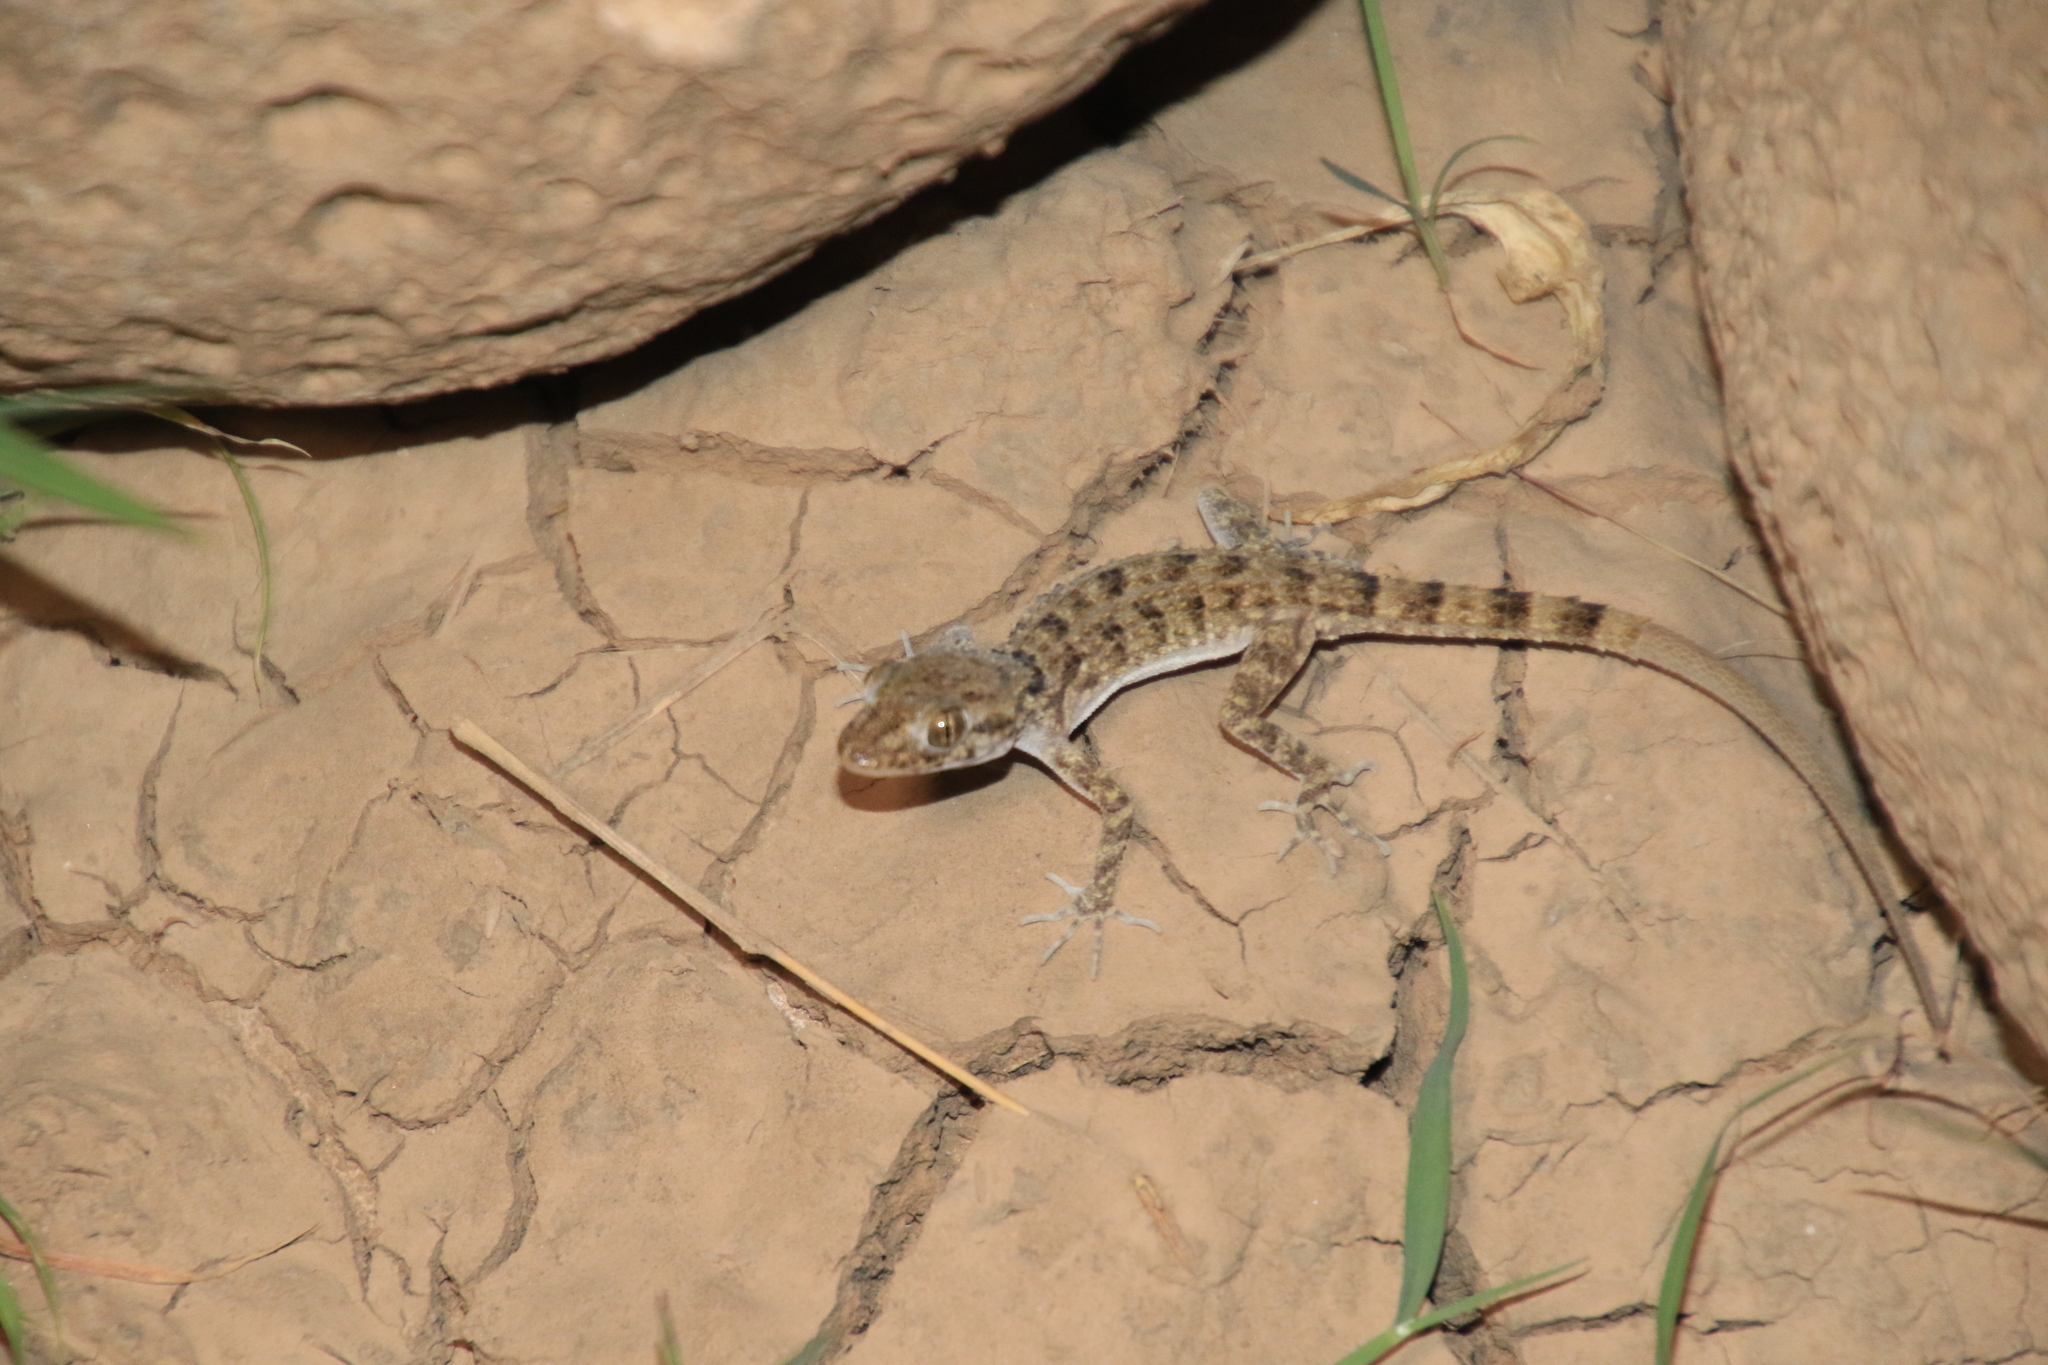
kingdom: Animalia
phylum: Chordata
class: Squamata
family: Gekkonidae
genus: Cyrtopodion
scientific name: Cyrtopodion scabrum
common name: Rough-tailed gecko
